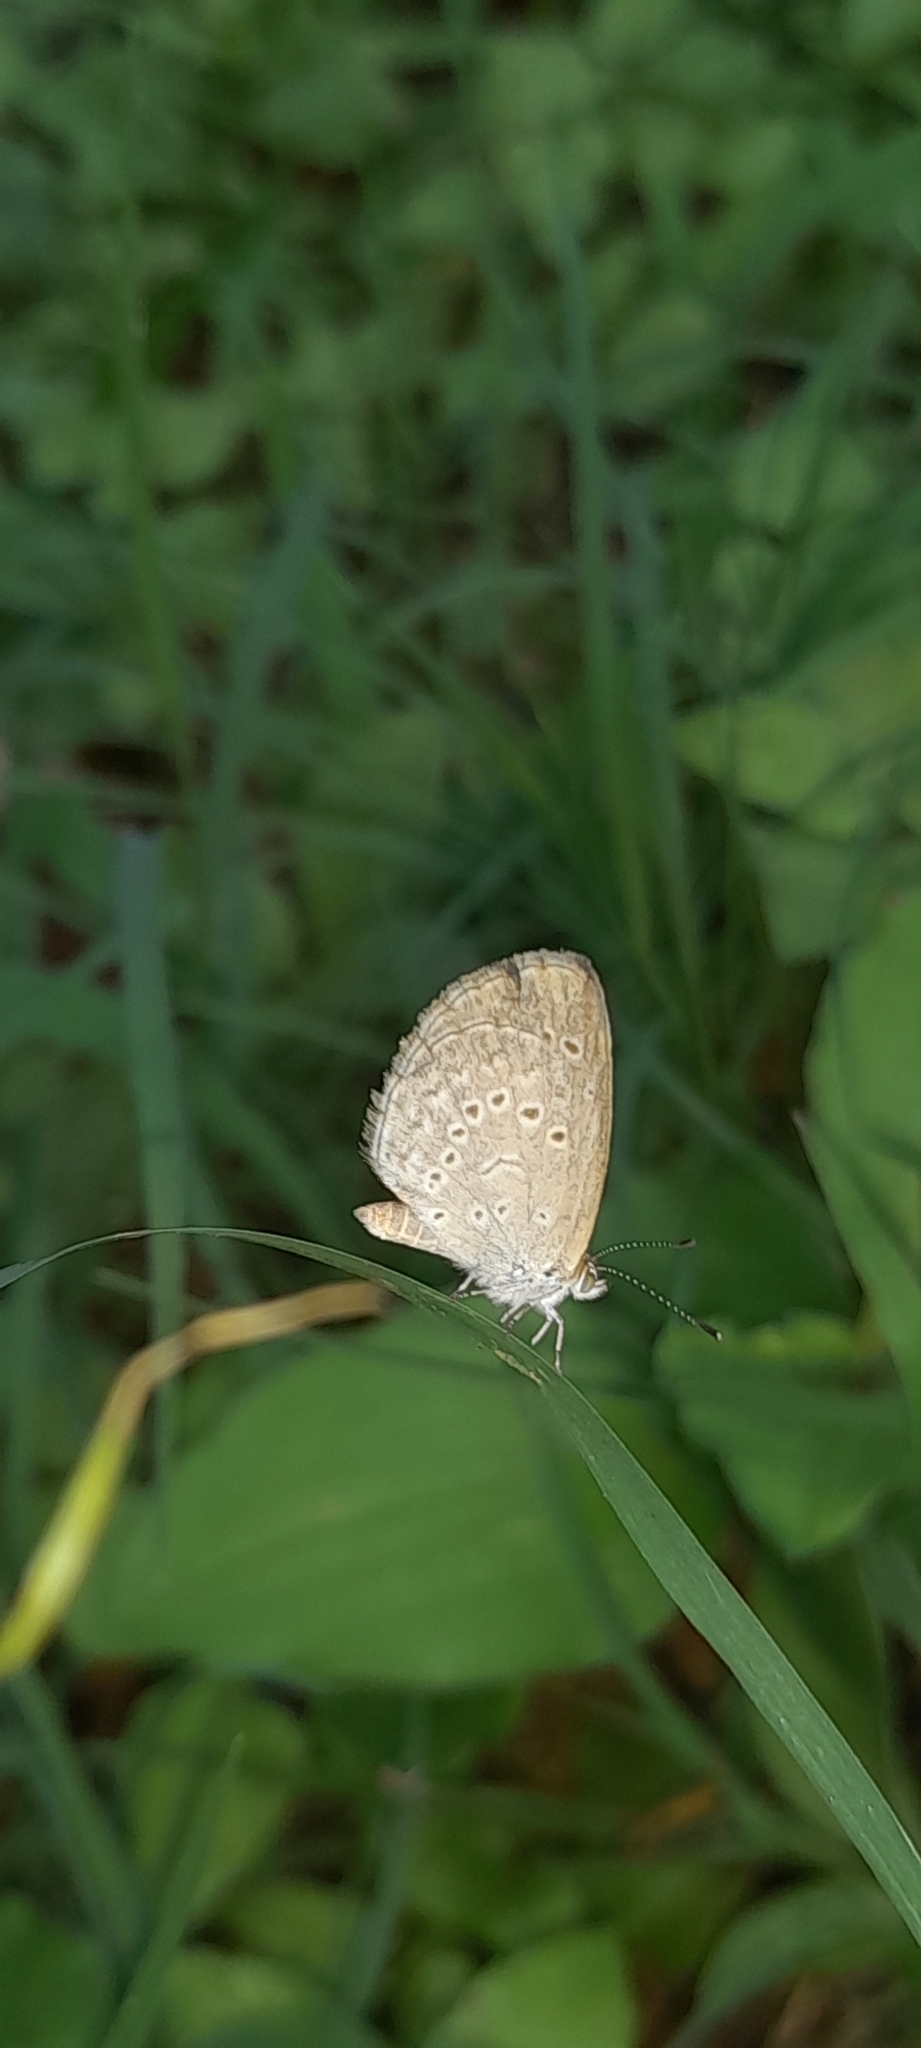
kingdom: Animalia
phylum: Arthropoda
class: Insecta
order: Lepidoptera
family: Lycaenidae
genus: Pseudozizeeria
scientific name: Pseudozizeeria maha
